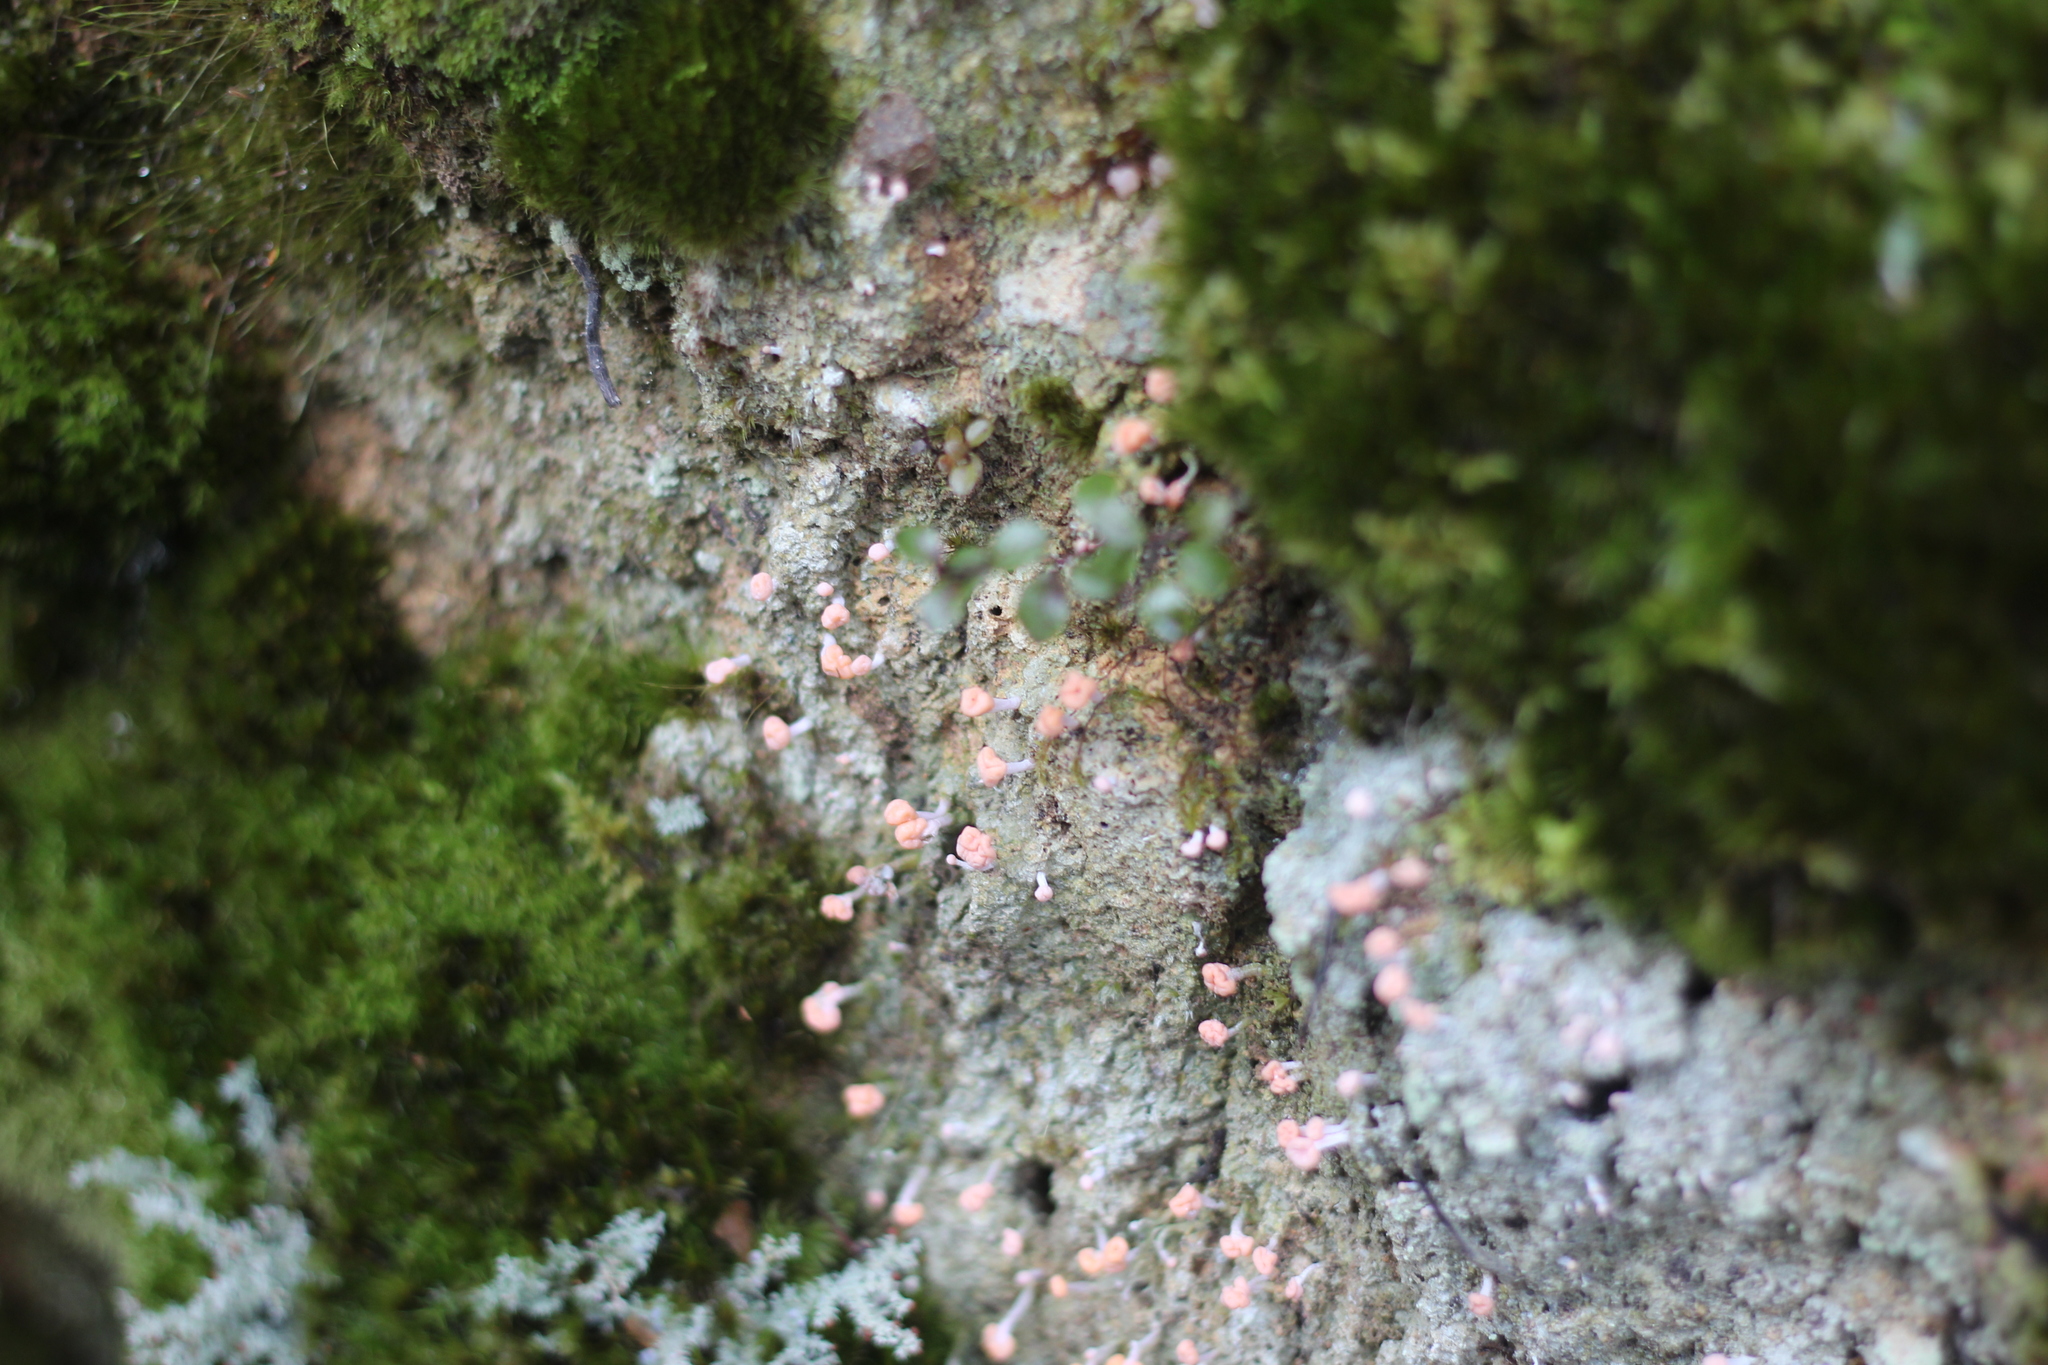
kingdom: Fungi
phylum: Ascomycota
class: Lecanoromycetes
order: Pertusariales
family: Icmadophilaceae
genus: Dibaeis
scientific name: Dibaeis arcuata
